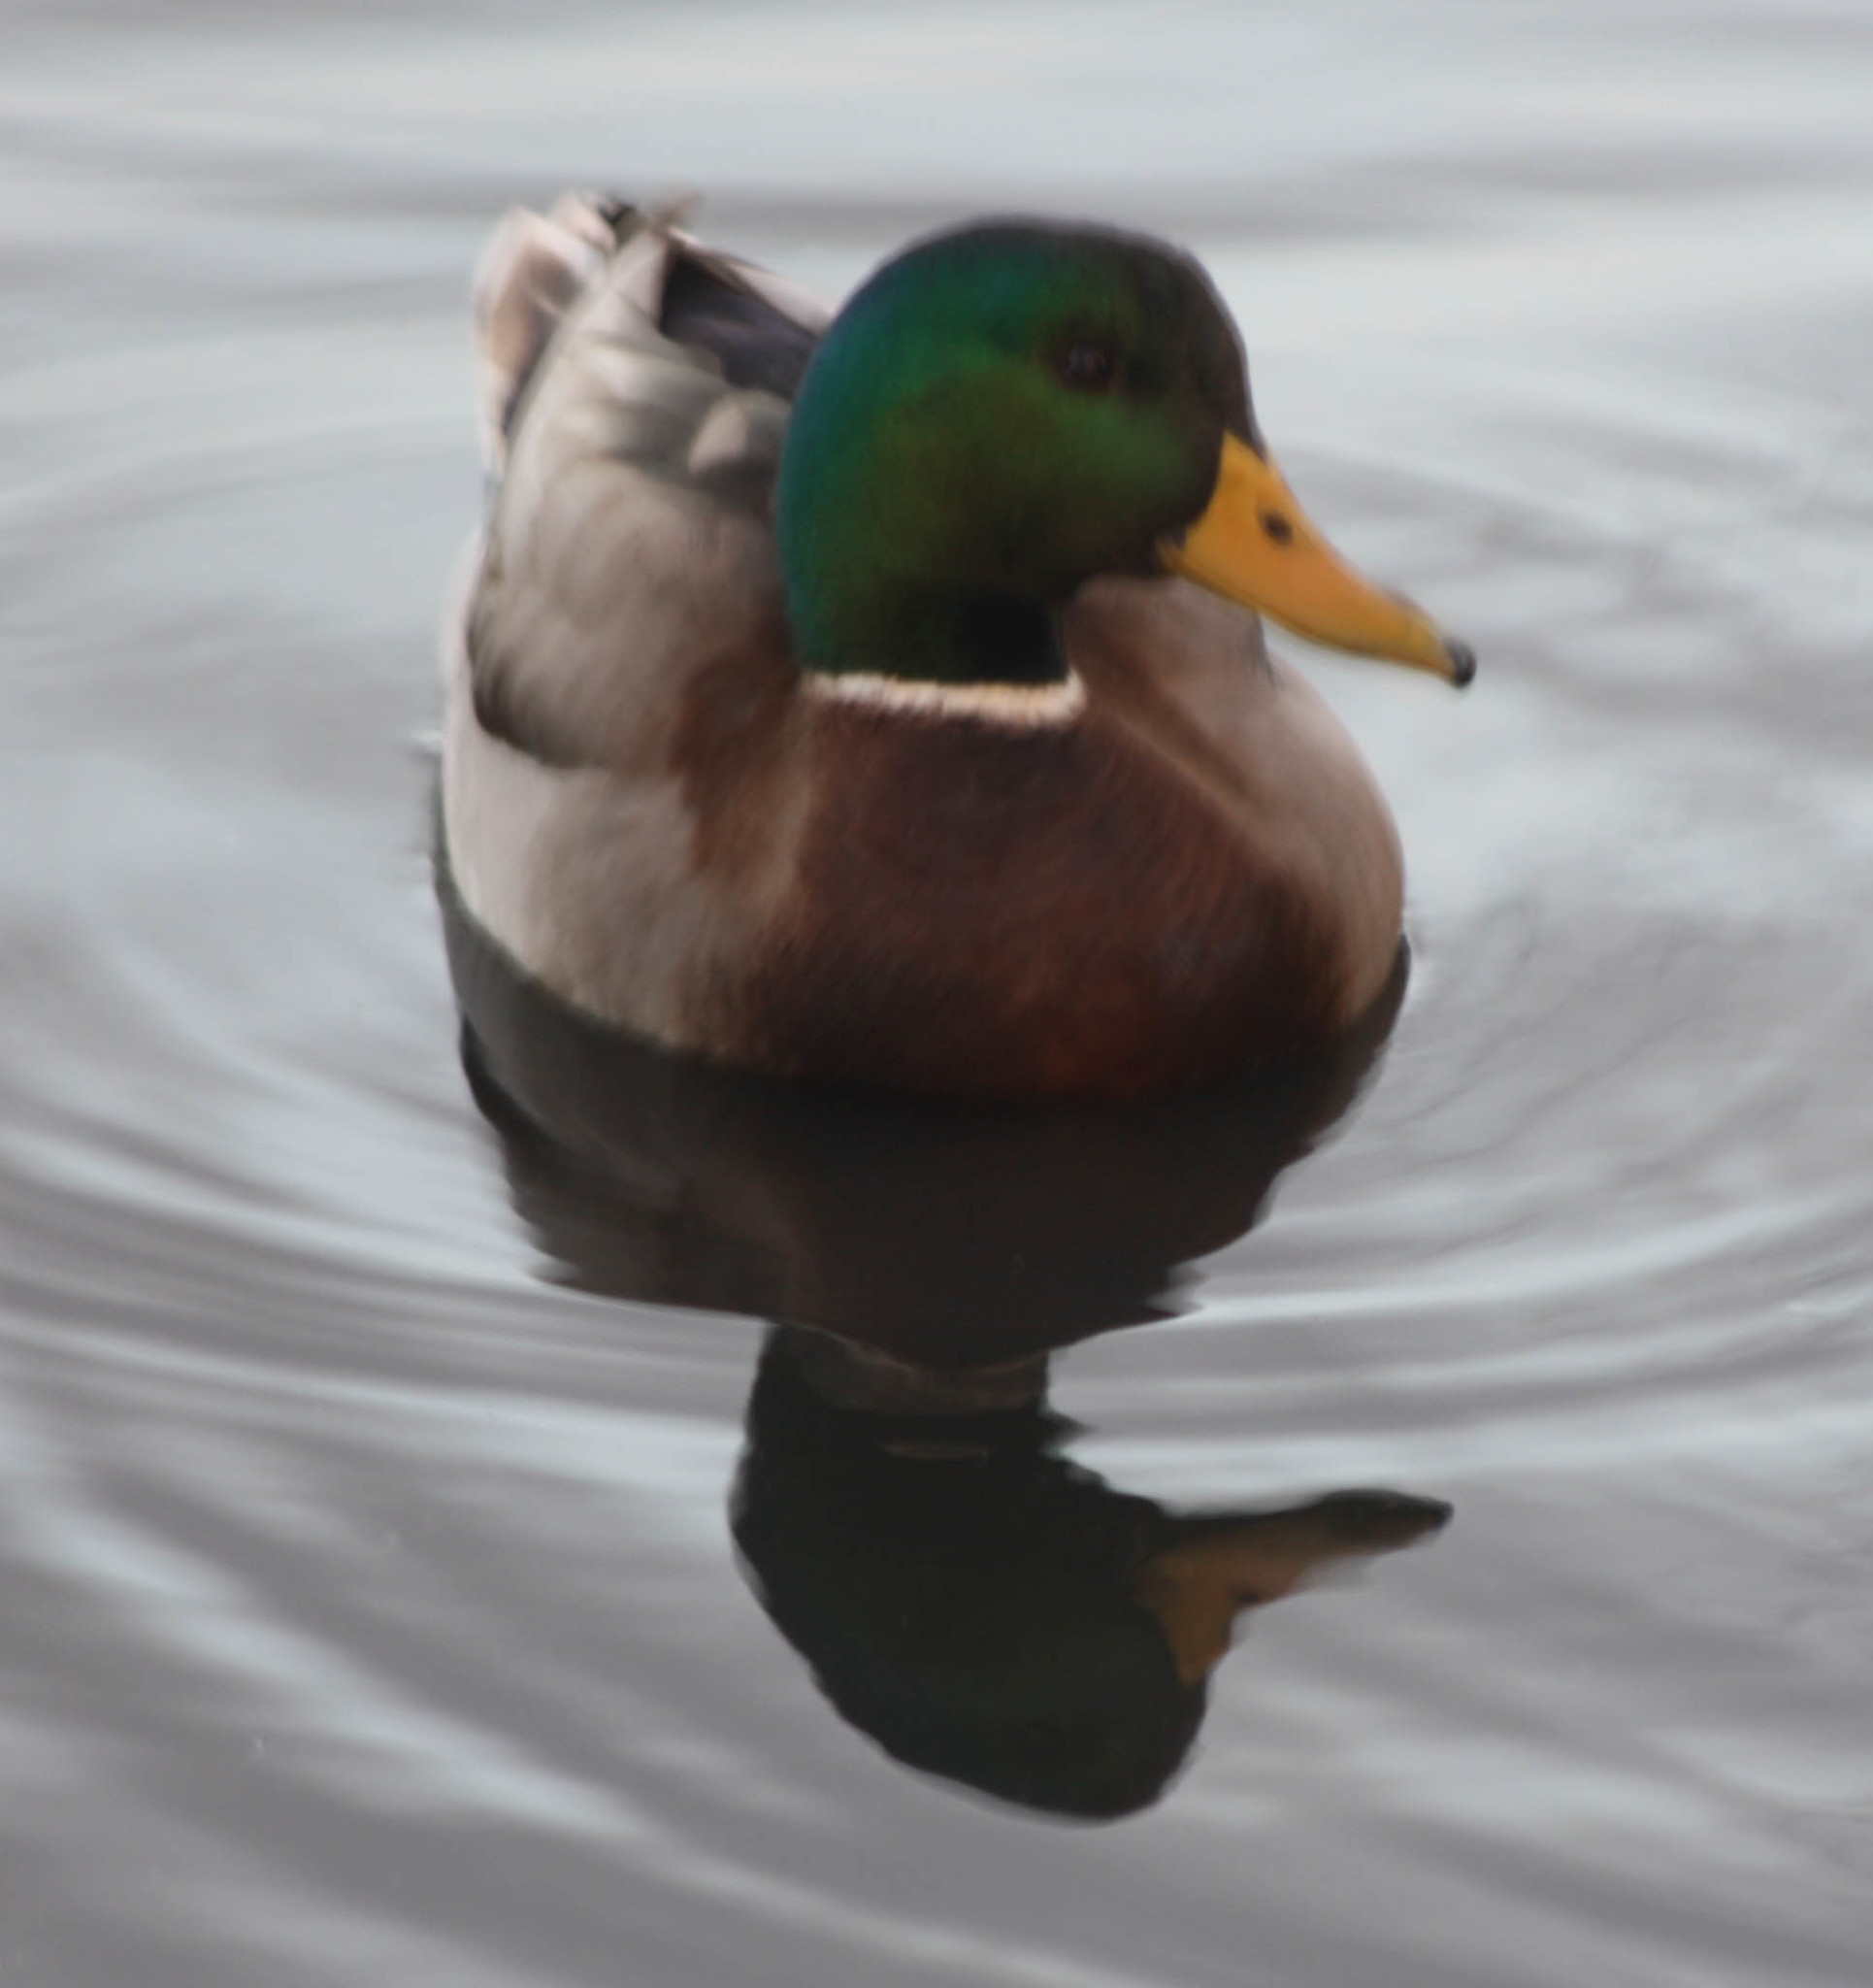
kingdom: Animalia
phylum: Chordata
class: Aves
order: Anseriformes
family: Anatidae
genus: Anas
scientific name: Anas platyrhynchos
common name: Mallard
